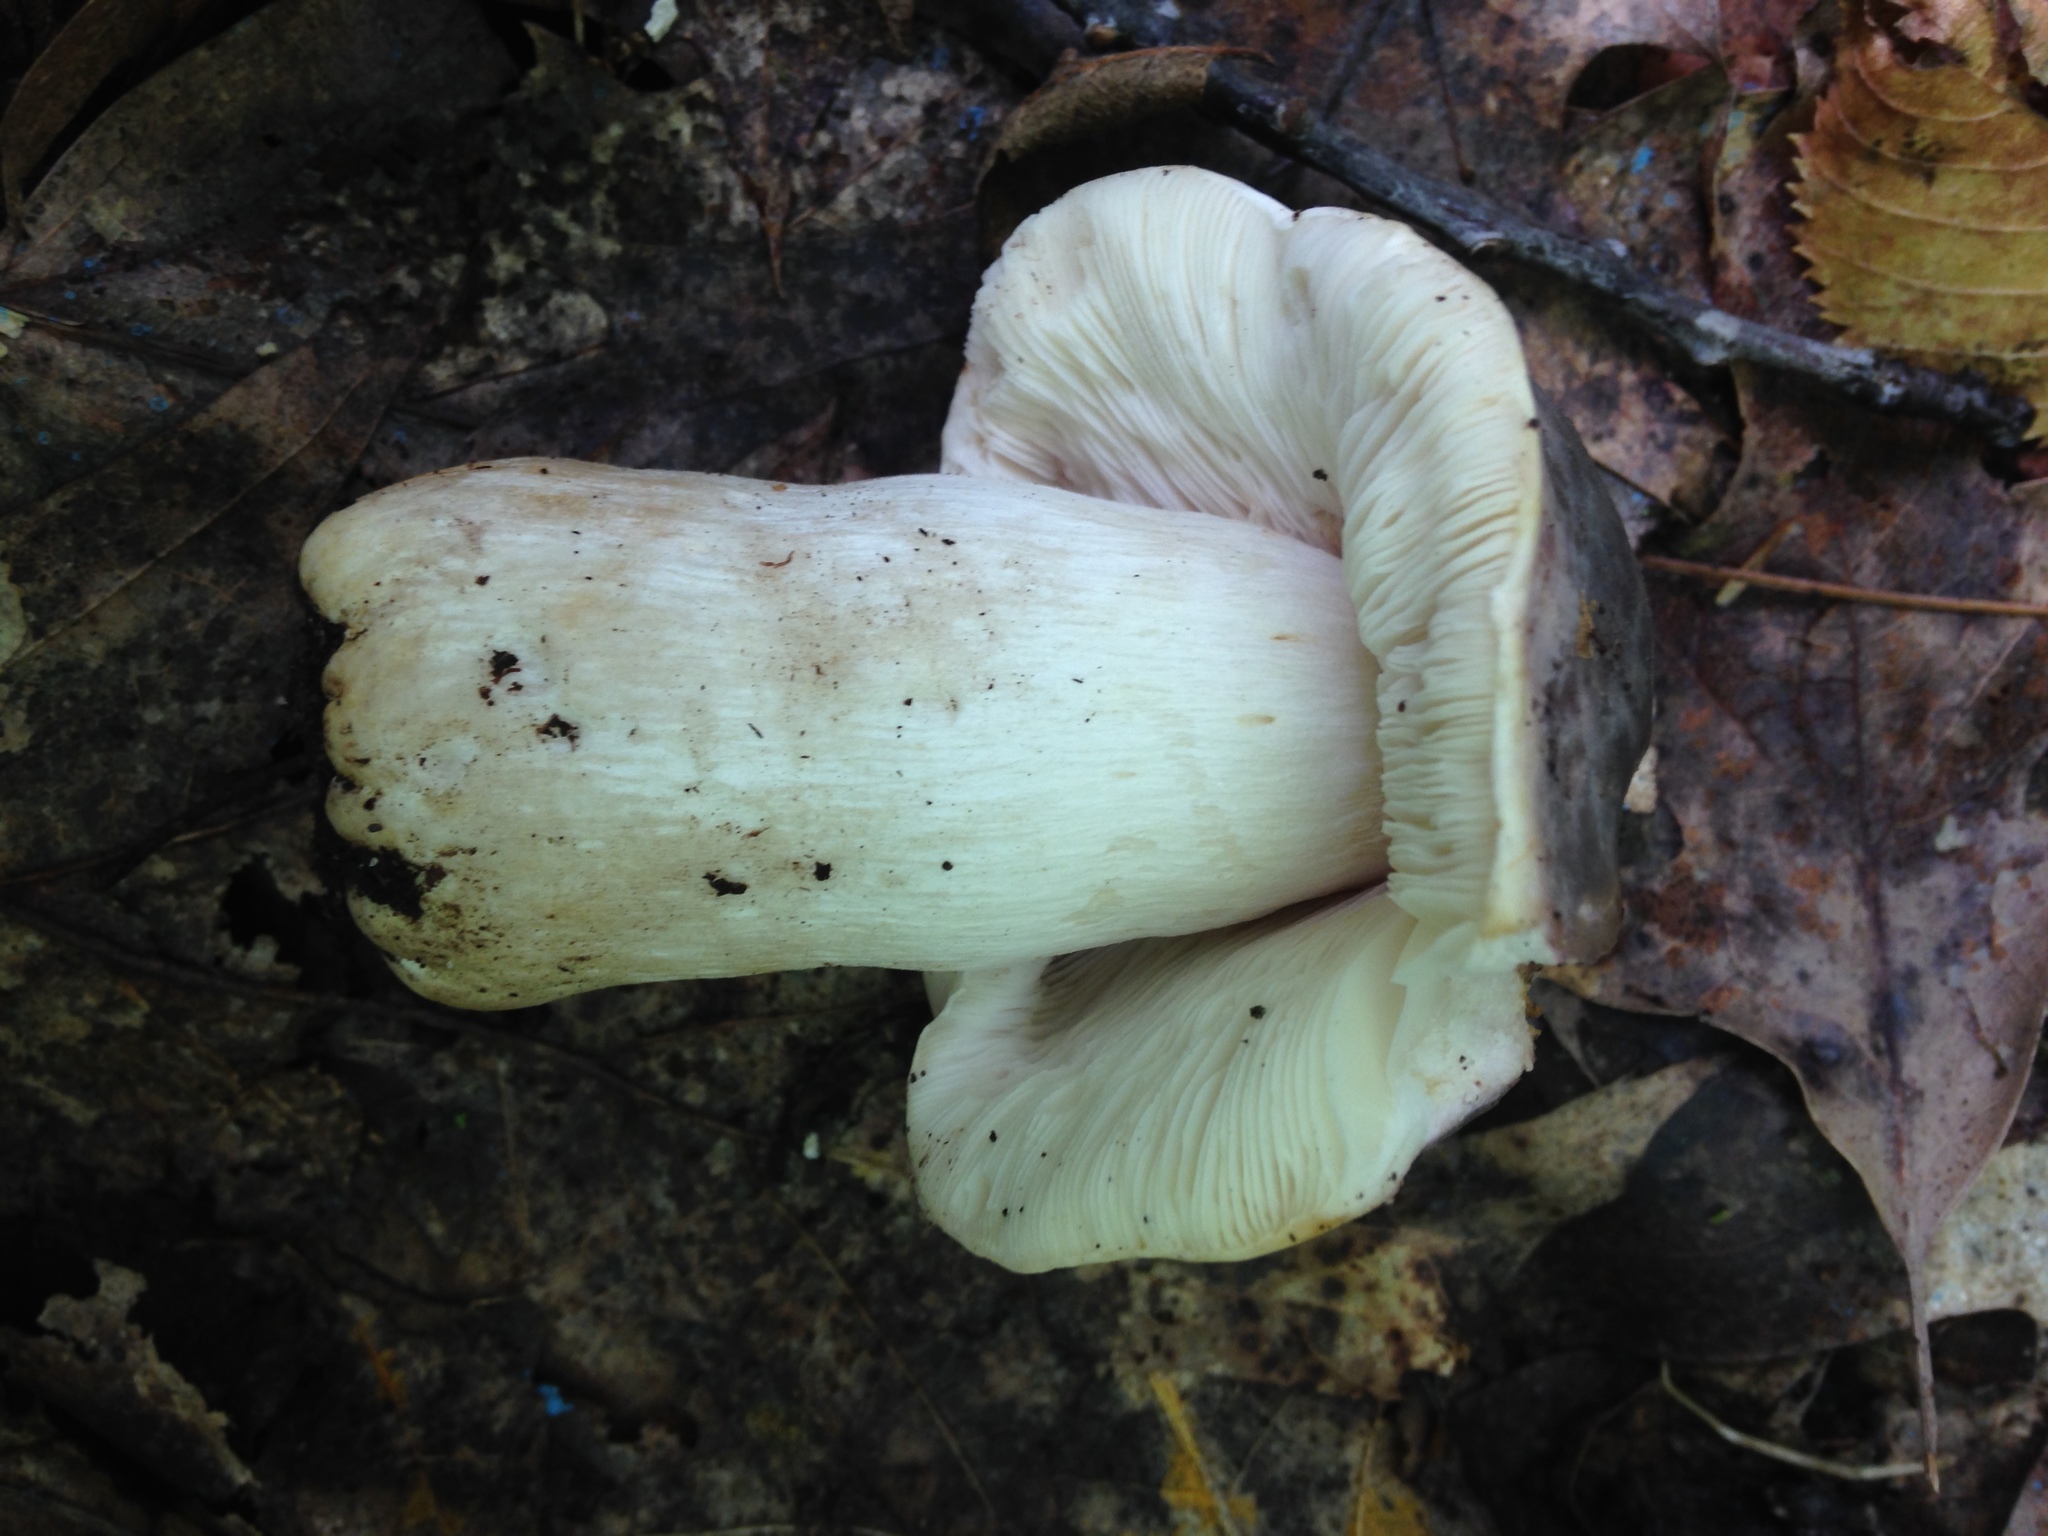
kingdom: Fungi
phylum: Basidiomycota
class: Agaricomycetes
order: Russulales
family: Russulaceae
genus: Russula
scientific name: Russula cyanoxantha
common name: Charcoal burner
